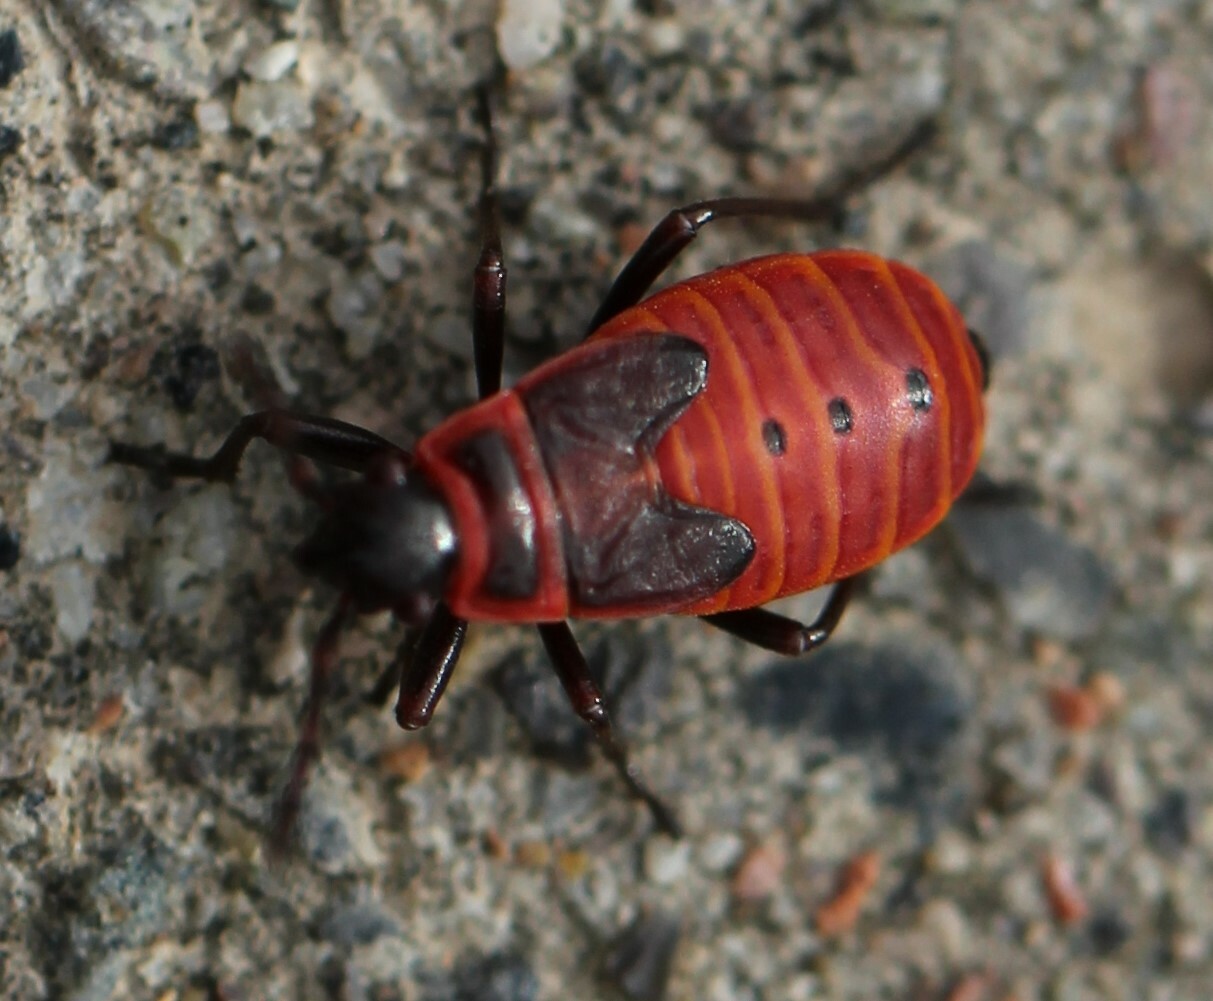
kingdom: Animalia
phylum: Arthropoda
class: Insecta
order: Hemiptera
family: Pyrrhocoridae
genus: Pyrrhocoris
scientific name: Pyrrhocoris apterus
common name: Firebug
